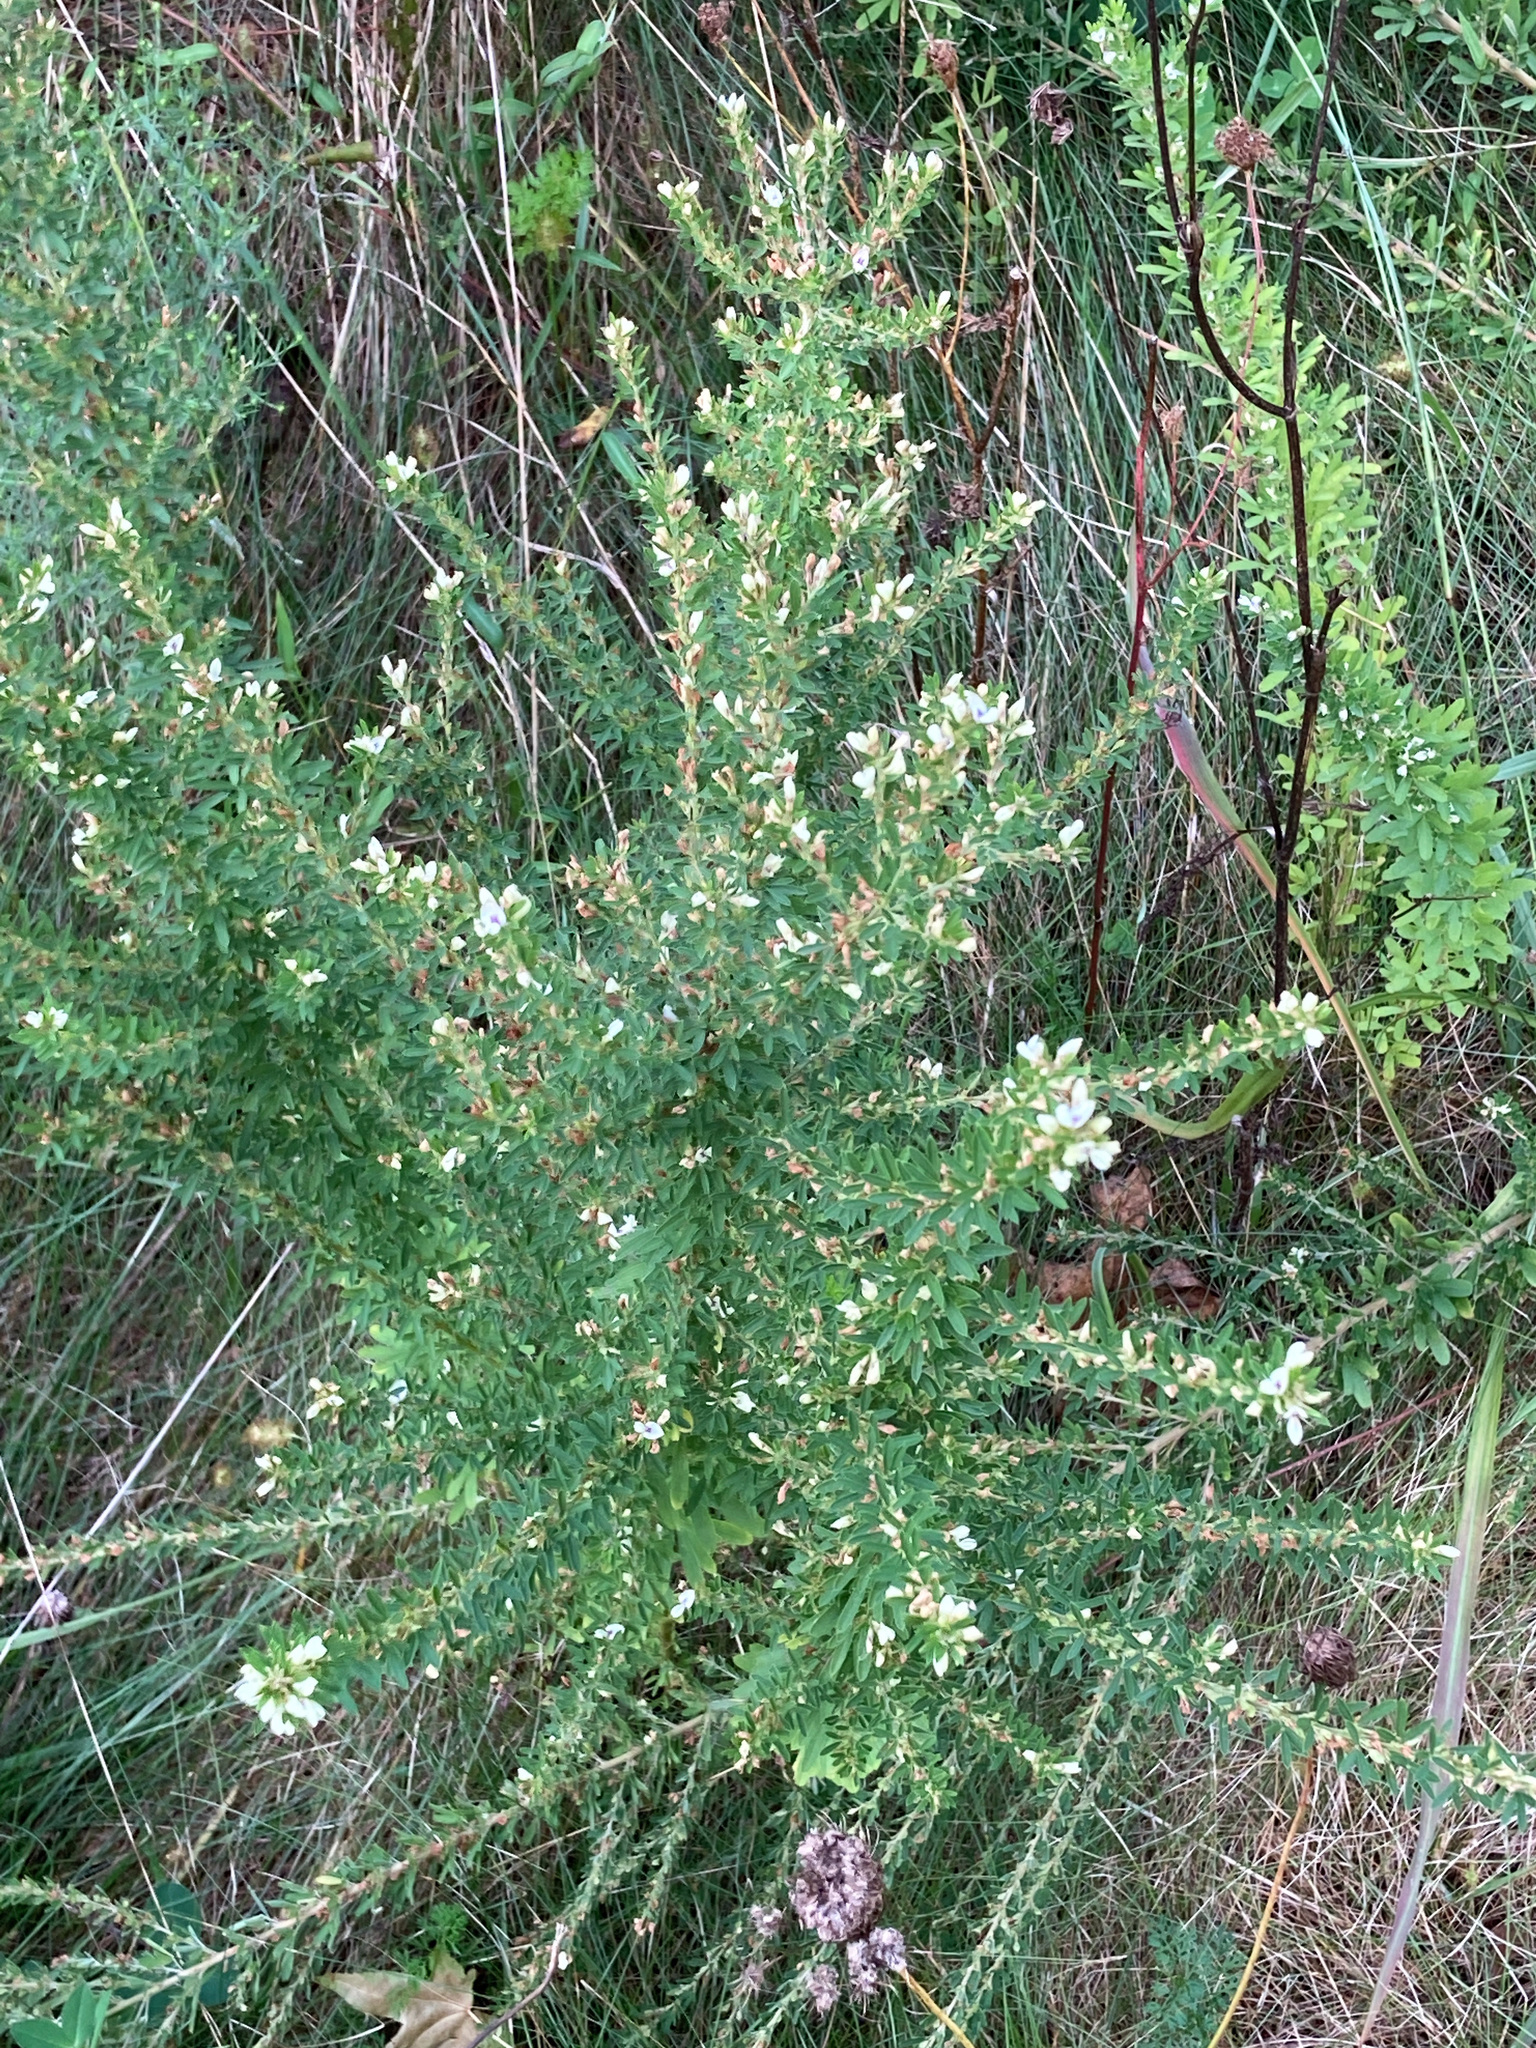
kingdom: Plantae
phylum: Tracheophyta
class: Magnoliopsida
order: Fabales
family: Fabaceae
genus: Lespedeza
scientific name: Lespedeza cuneata
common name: Chinese bush-clover
